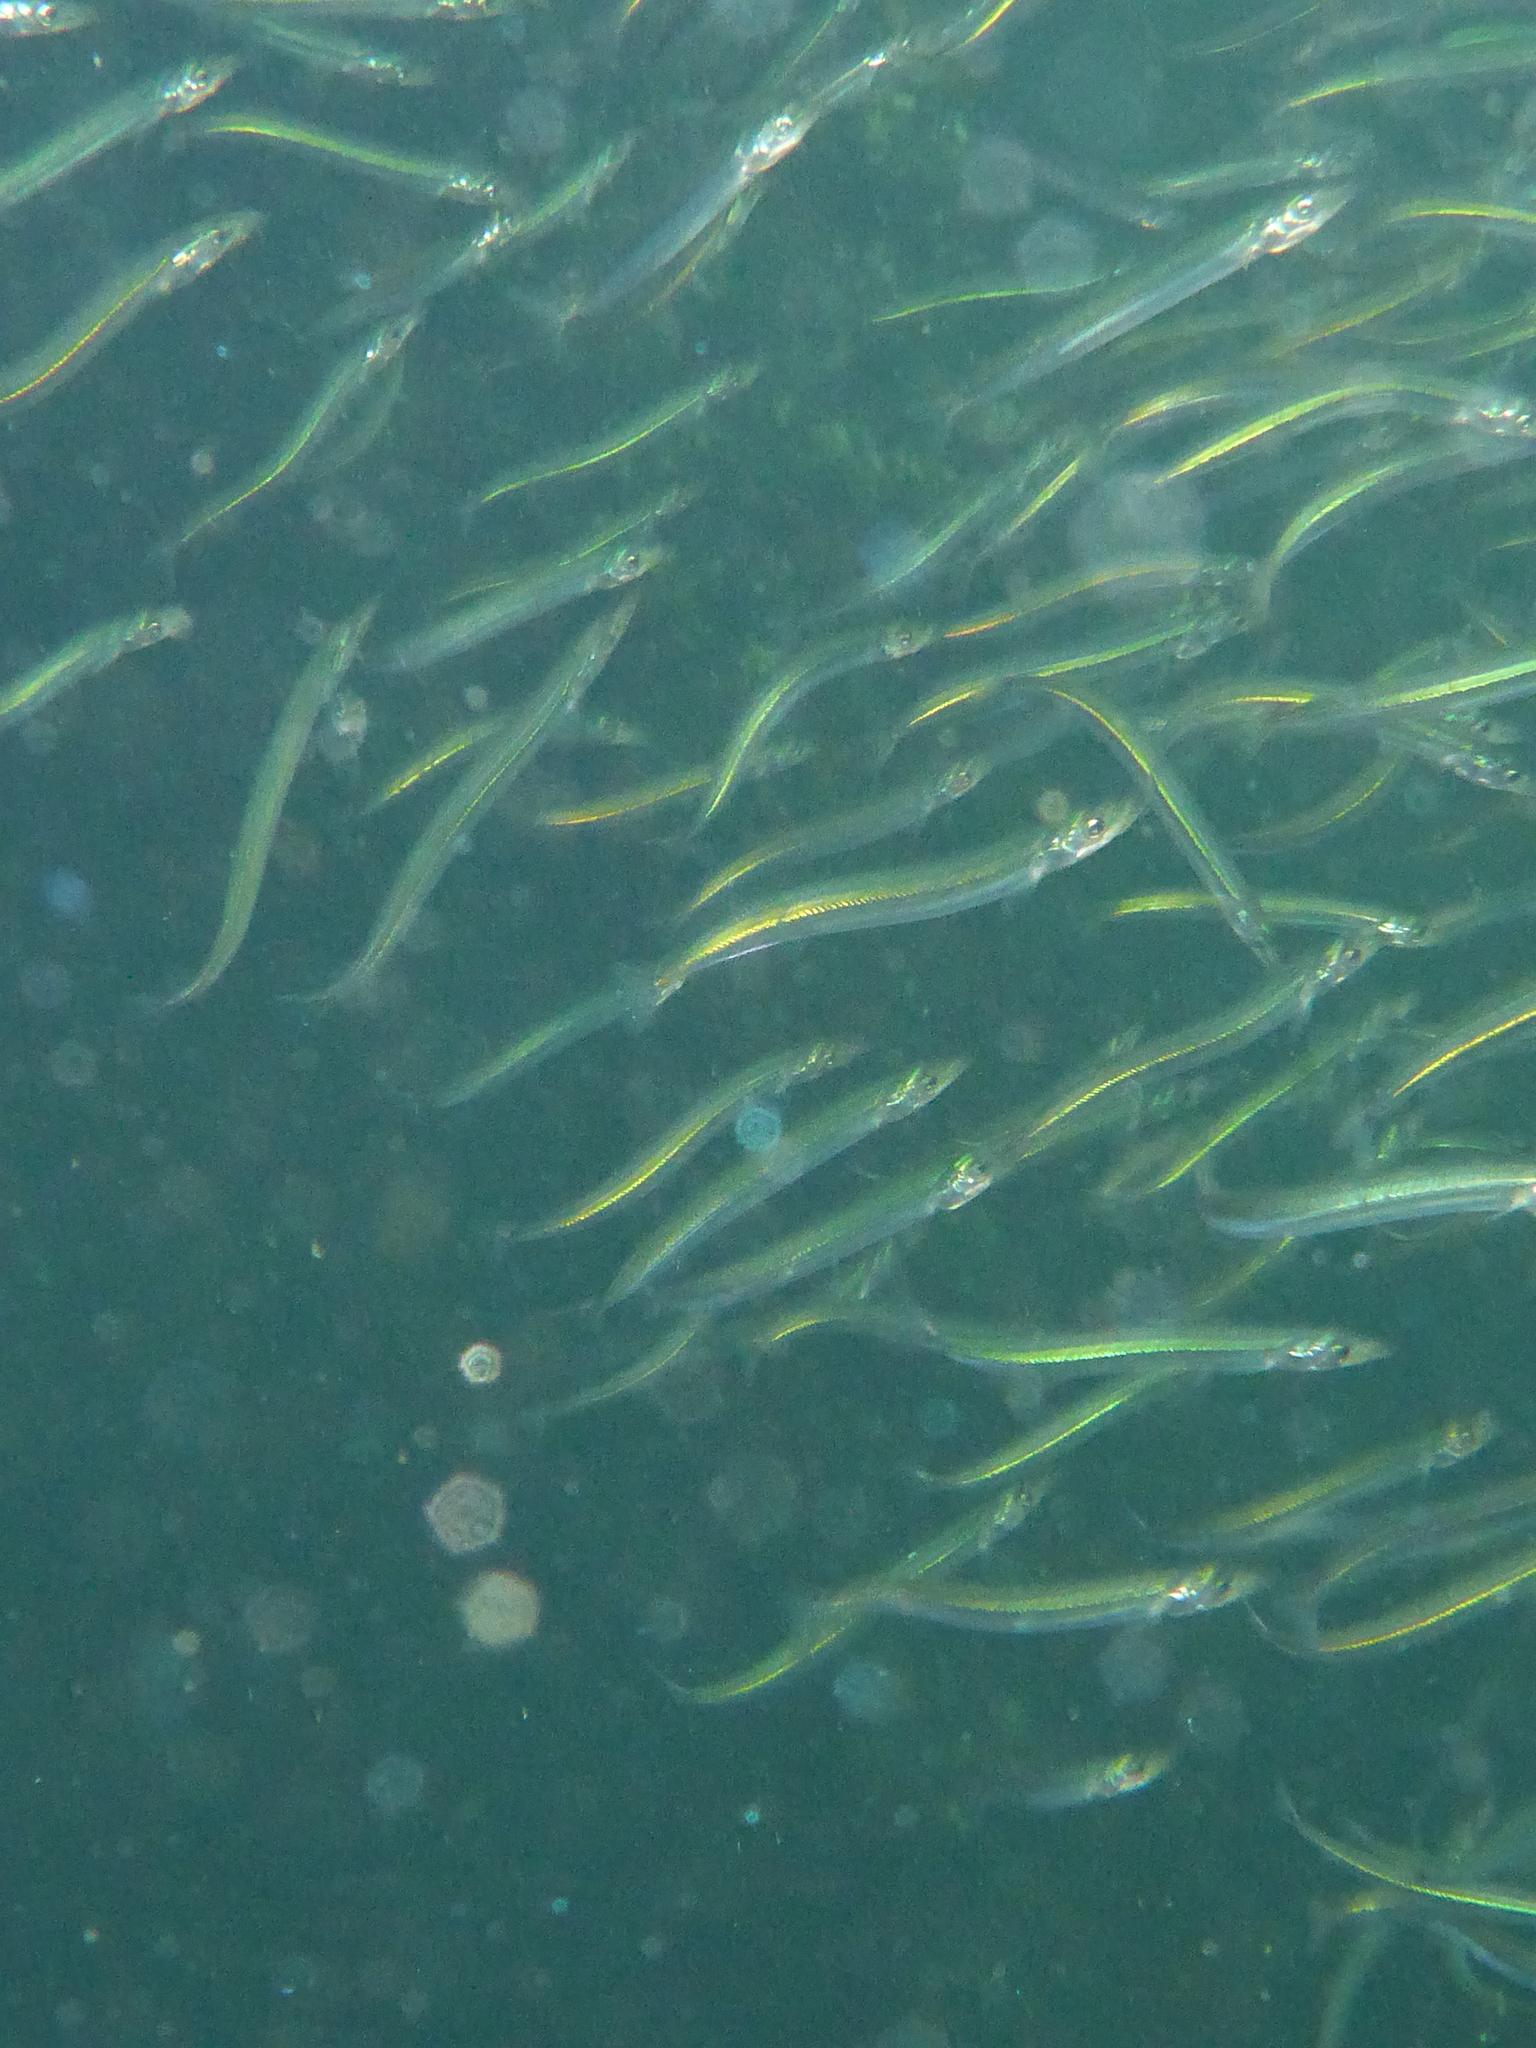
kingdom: Animalia
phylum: Chordata
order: Perciformes
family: Ammodytidae
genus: Ammodytes
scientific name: Ammodytes personatus
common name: Japanese sand lance
